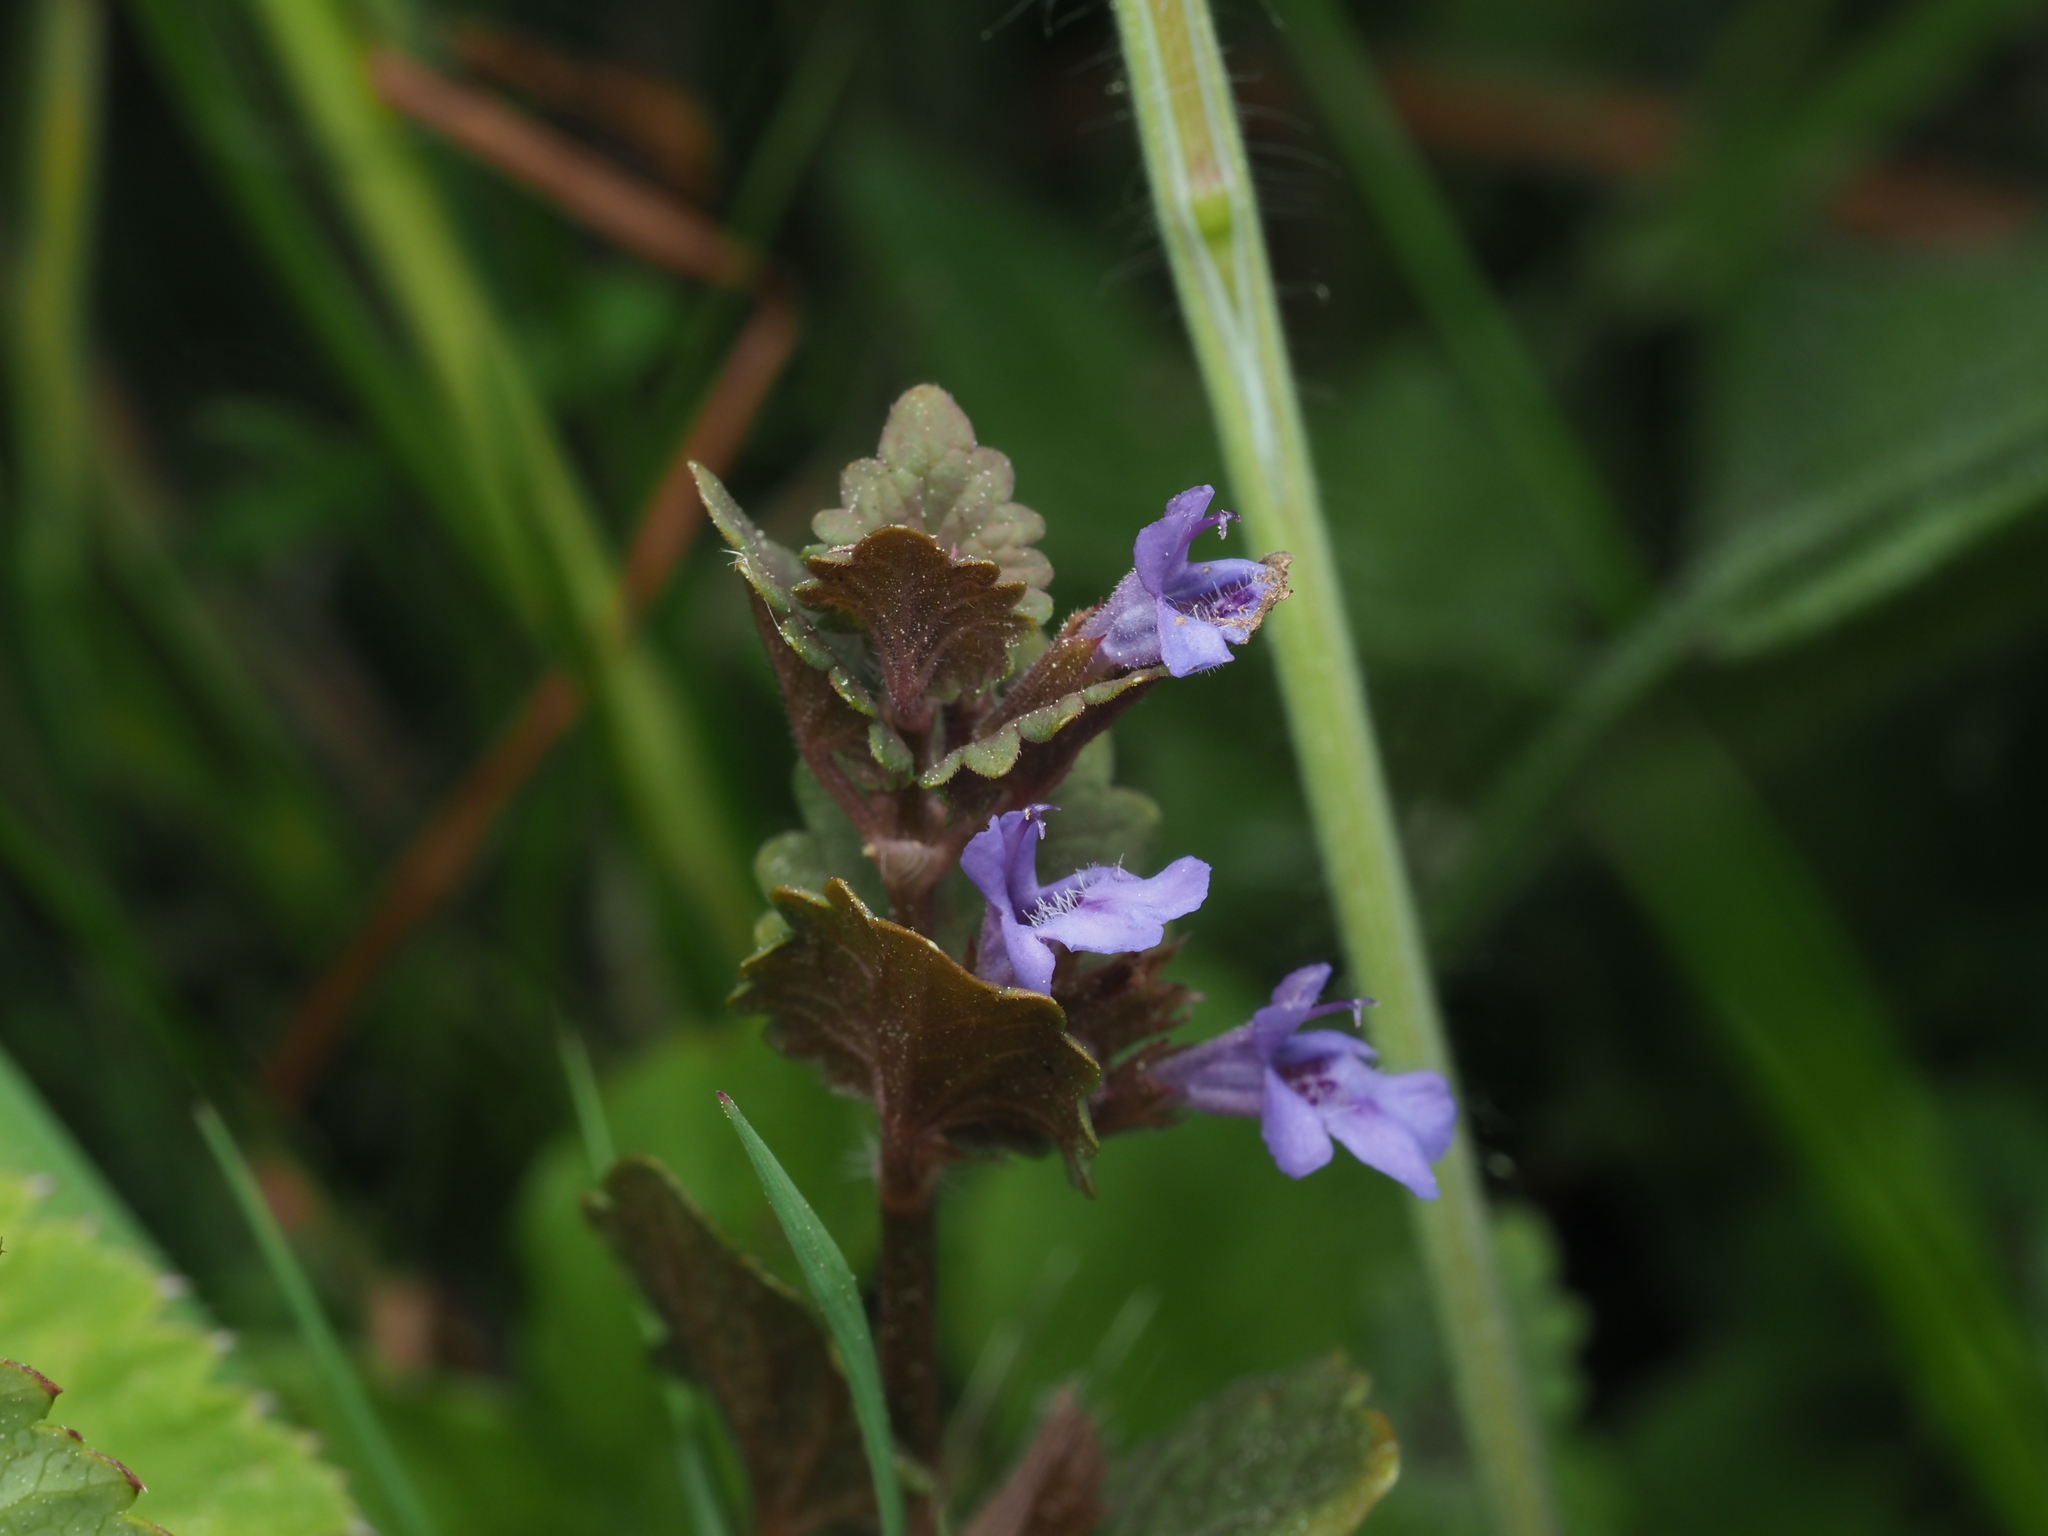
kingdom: Plantae
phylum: Tracheophyta
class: Magnoliopsida
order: Lamiales
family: Lamiaceae
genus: Glechoma
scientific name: Glechoma hederacea
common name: Ground ivy
